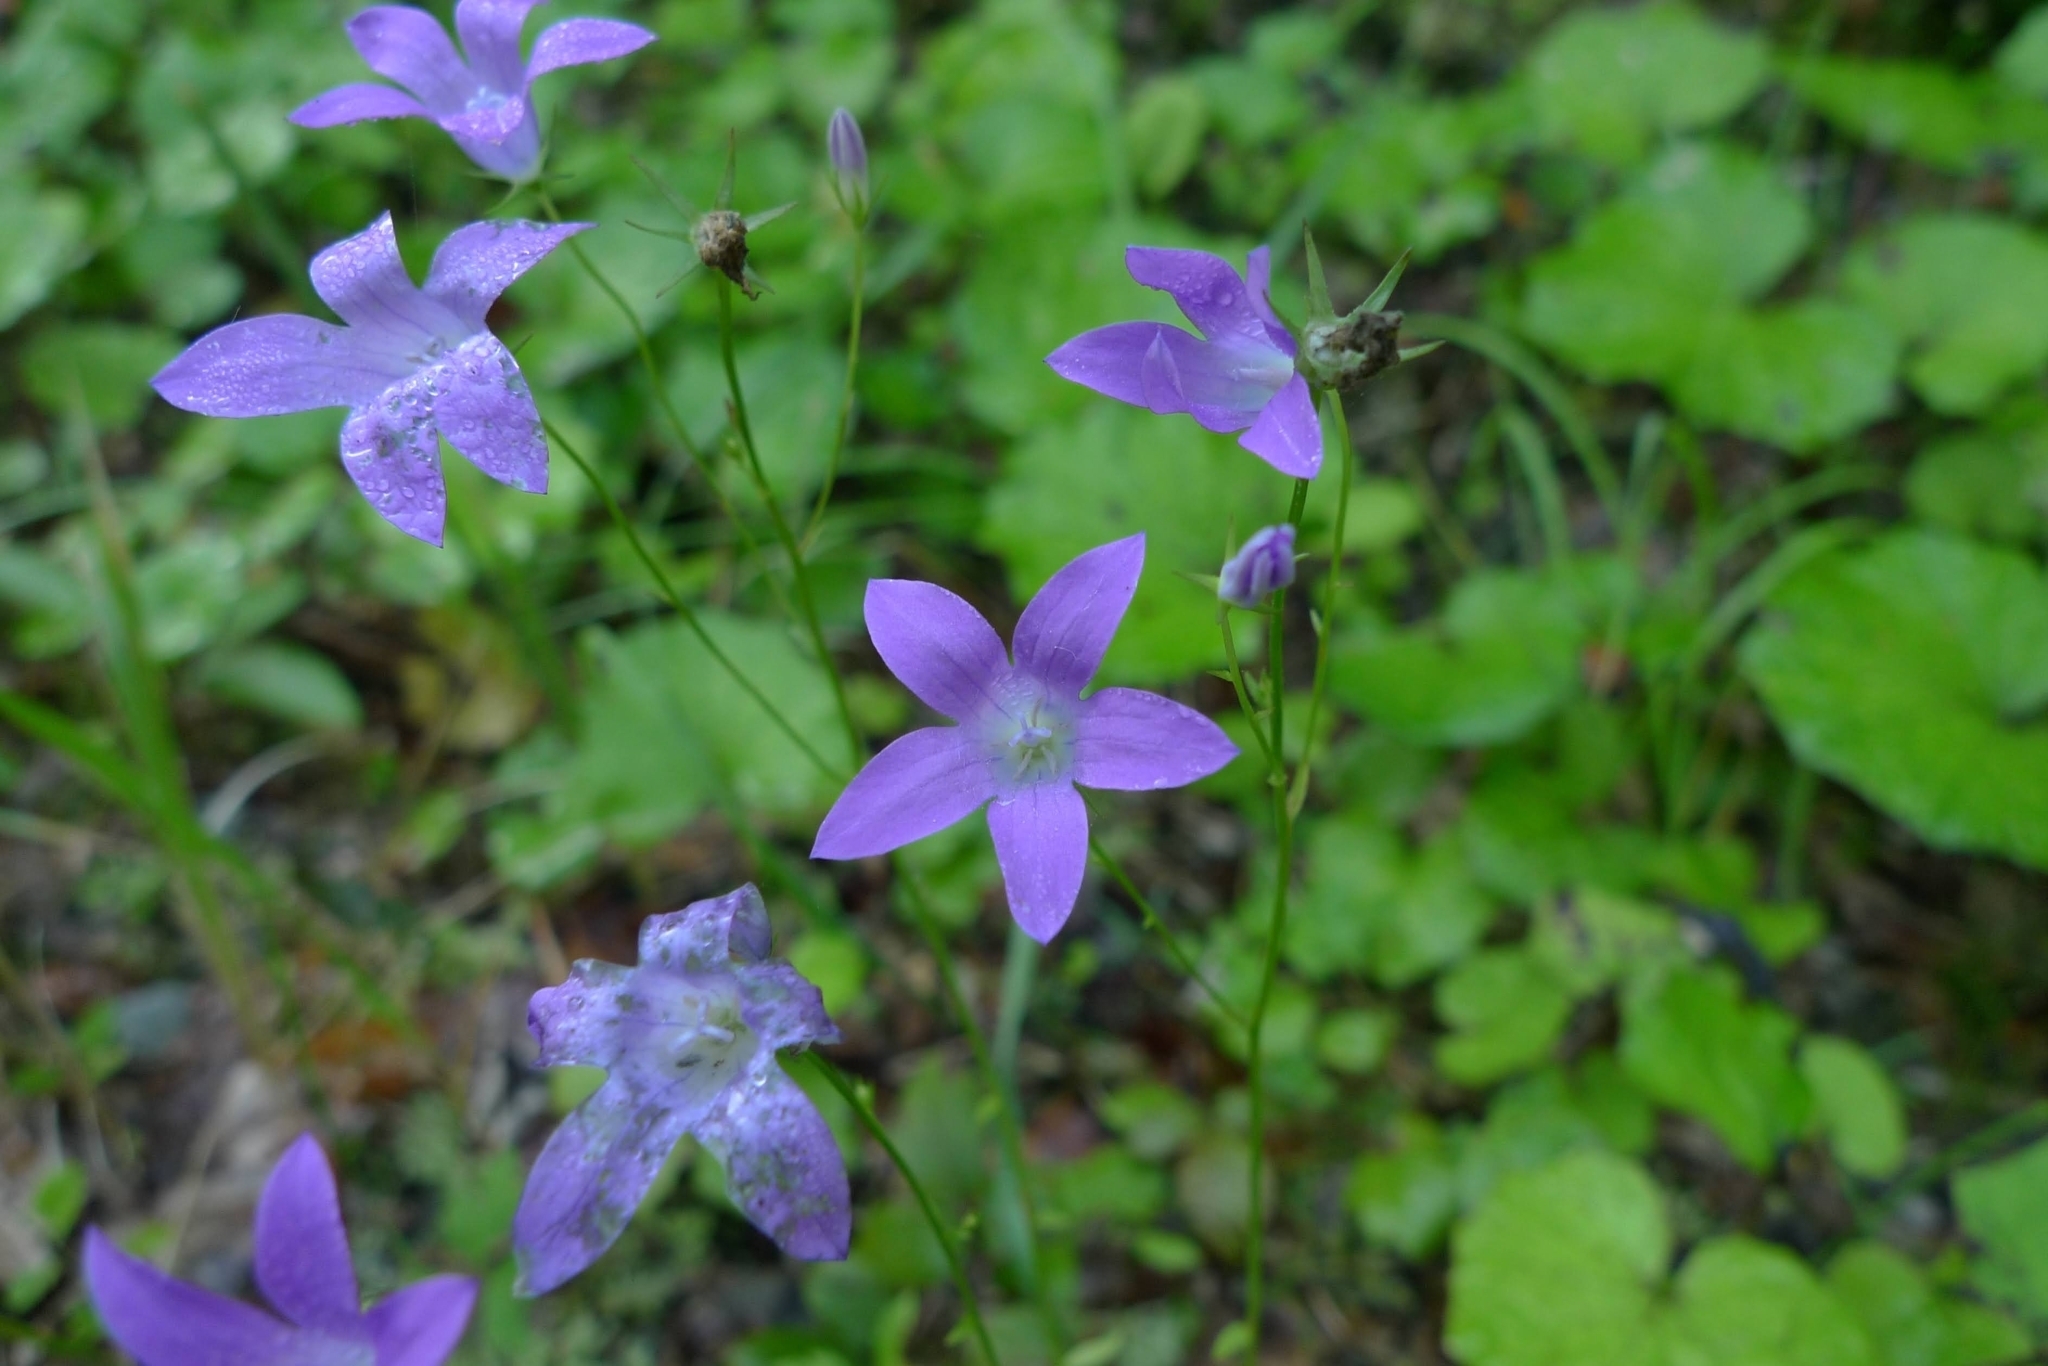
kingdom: Plantae
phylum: Tracheophyta
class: Magnoliopsida
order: Asterales
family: Campanulaceae
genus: Campanula
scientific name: Campanula patula
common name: Spreading bellflower
